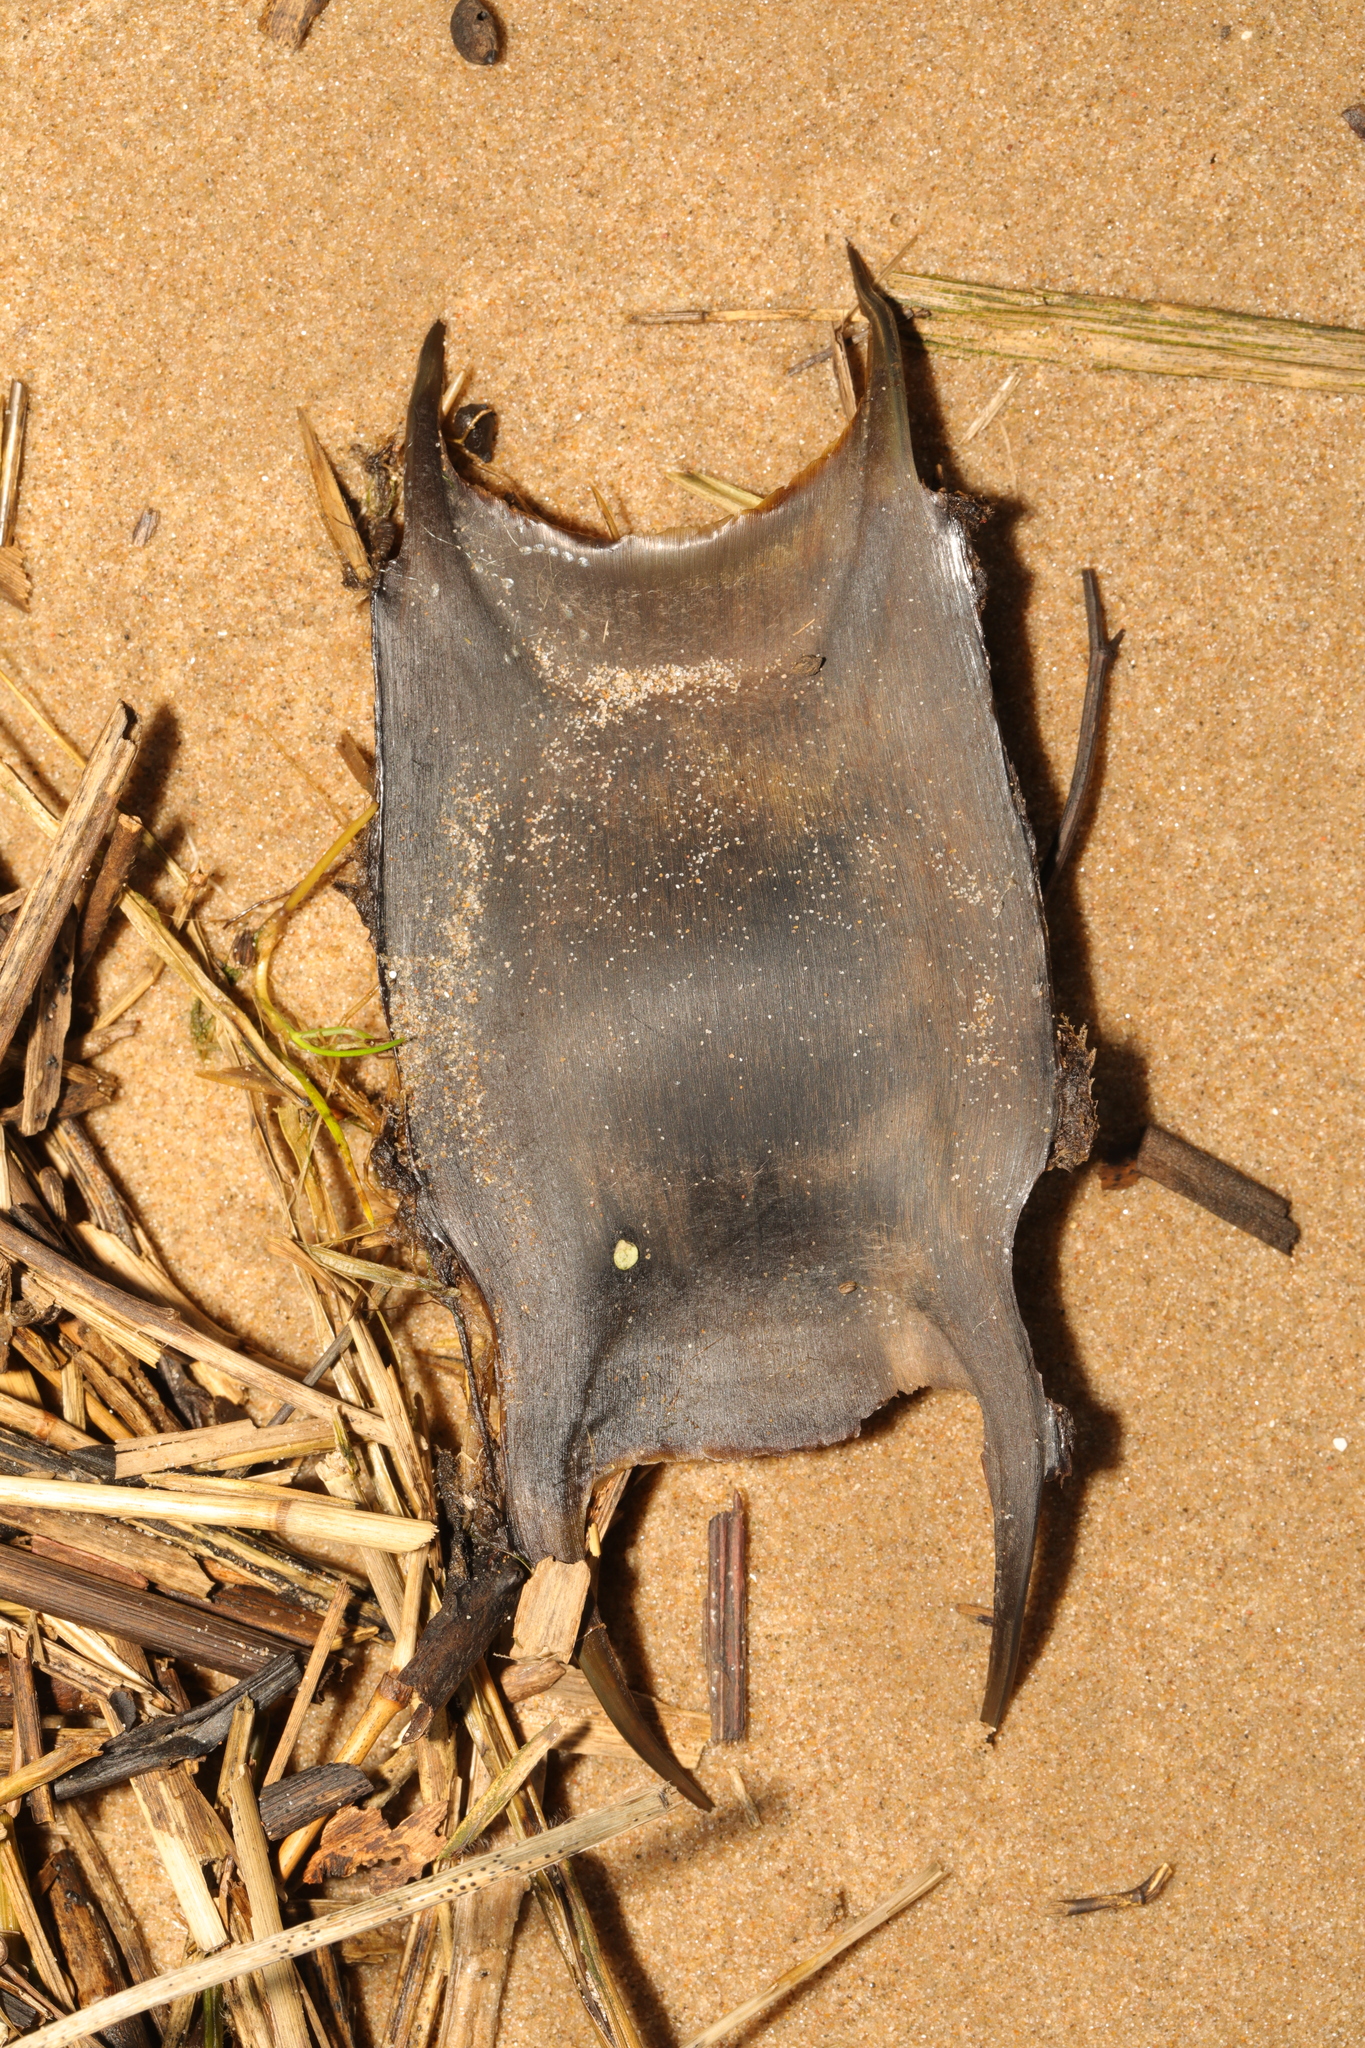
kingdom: Animalia
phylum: Chordata
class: Elasmobranchii
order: Rajiformes
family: Rajidae
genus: Raja
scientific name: Raja clavata
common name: Thornback ray
